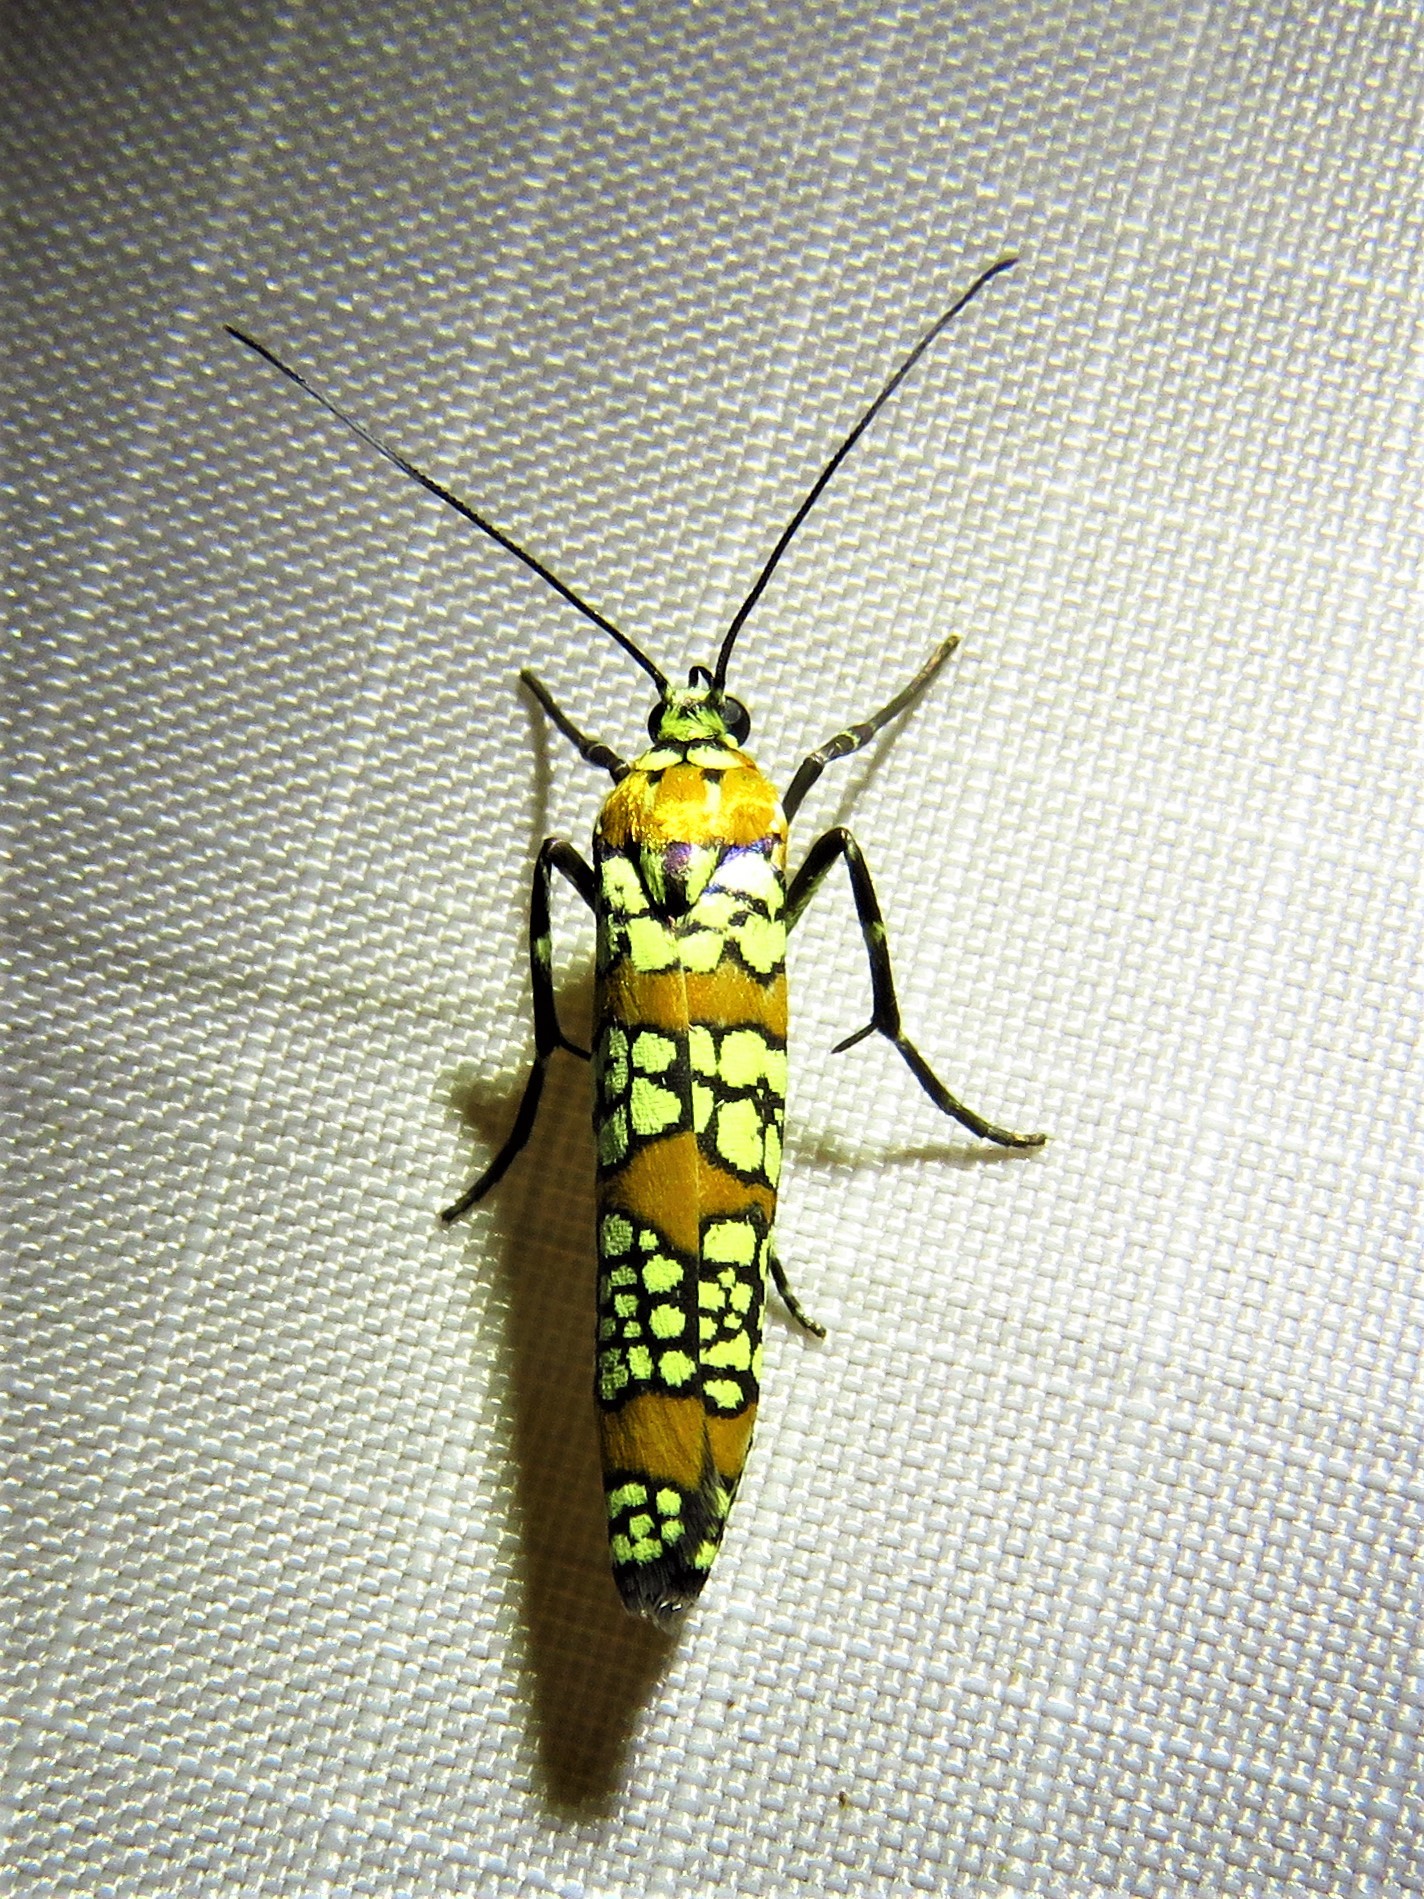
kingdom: Animalia
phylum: Arthropoda
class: Insecta
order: Lepidoptera
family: Attevidae
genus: Atteva
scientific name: Atteva punctella
